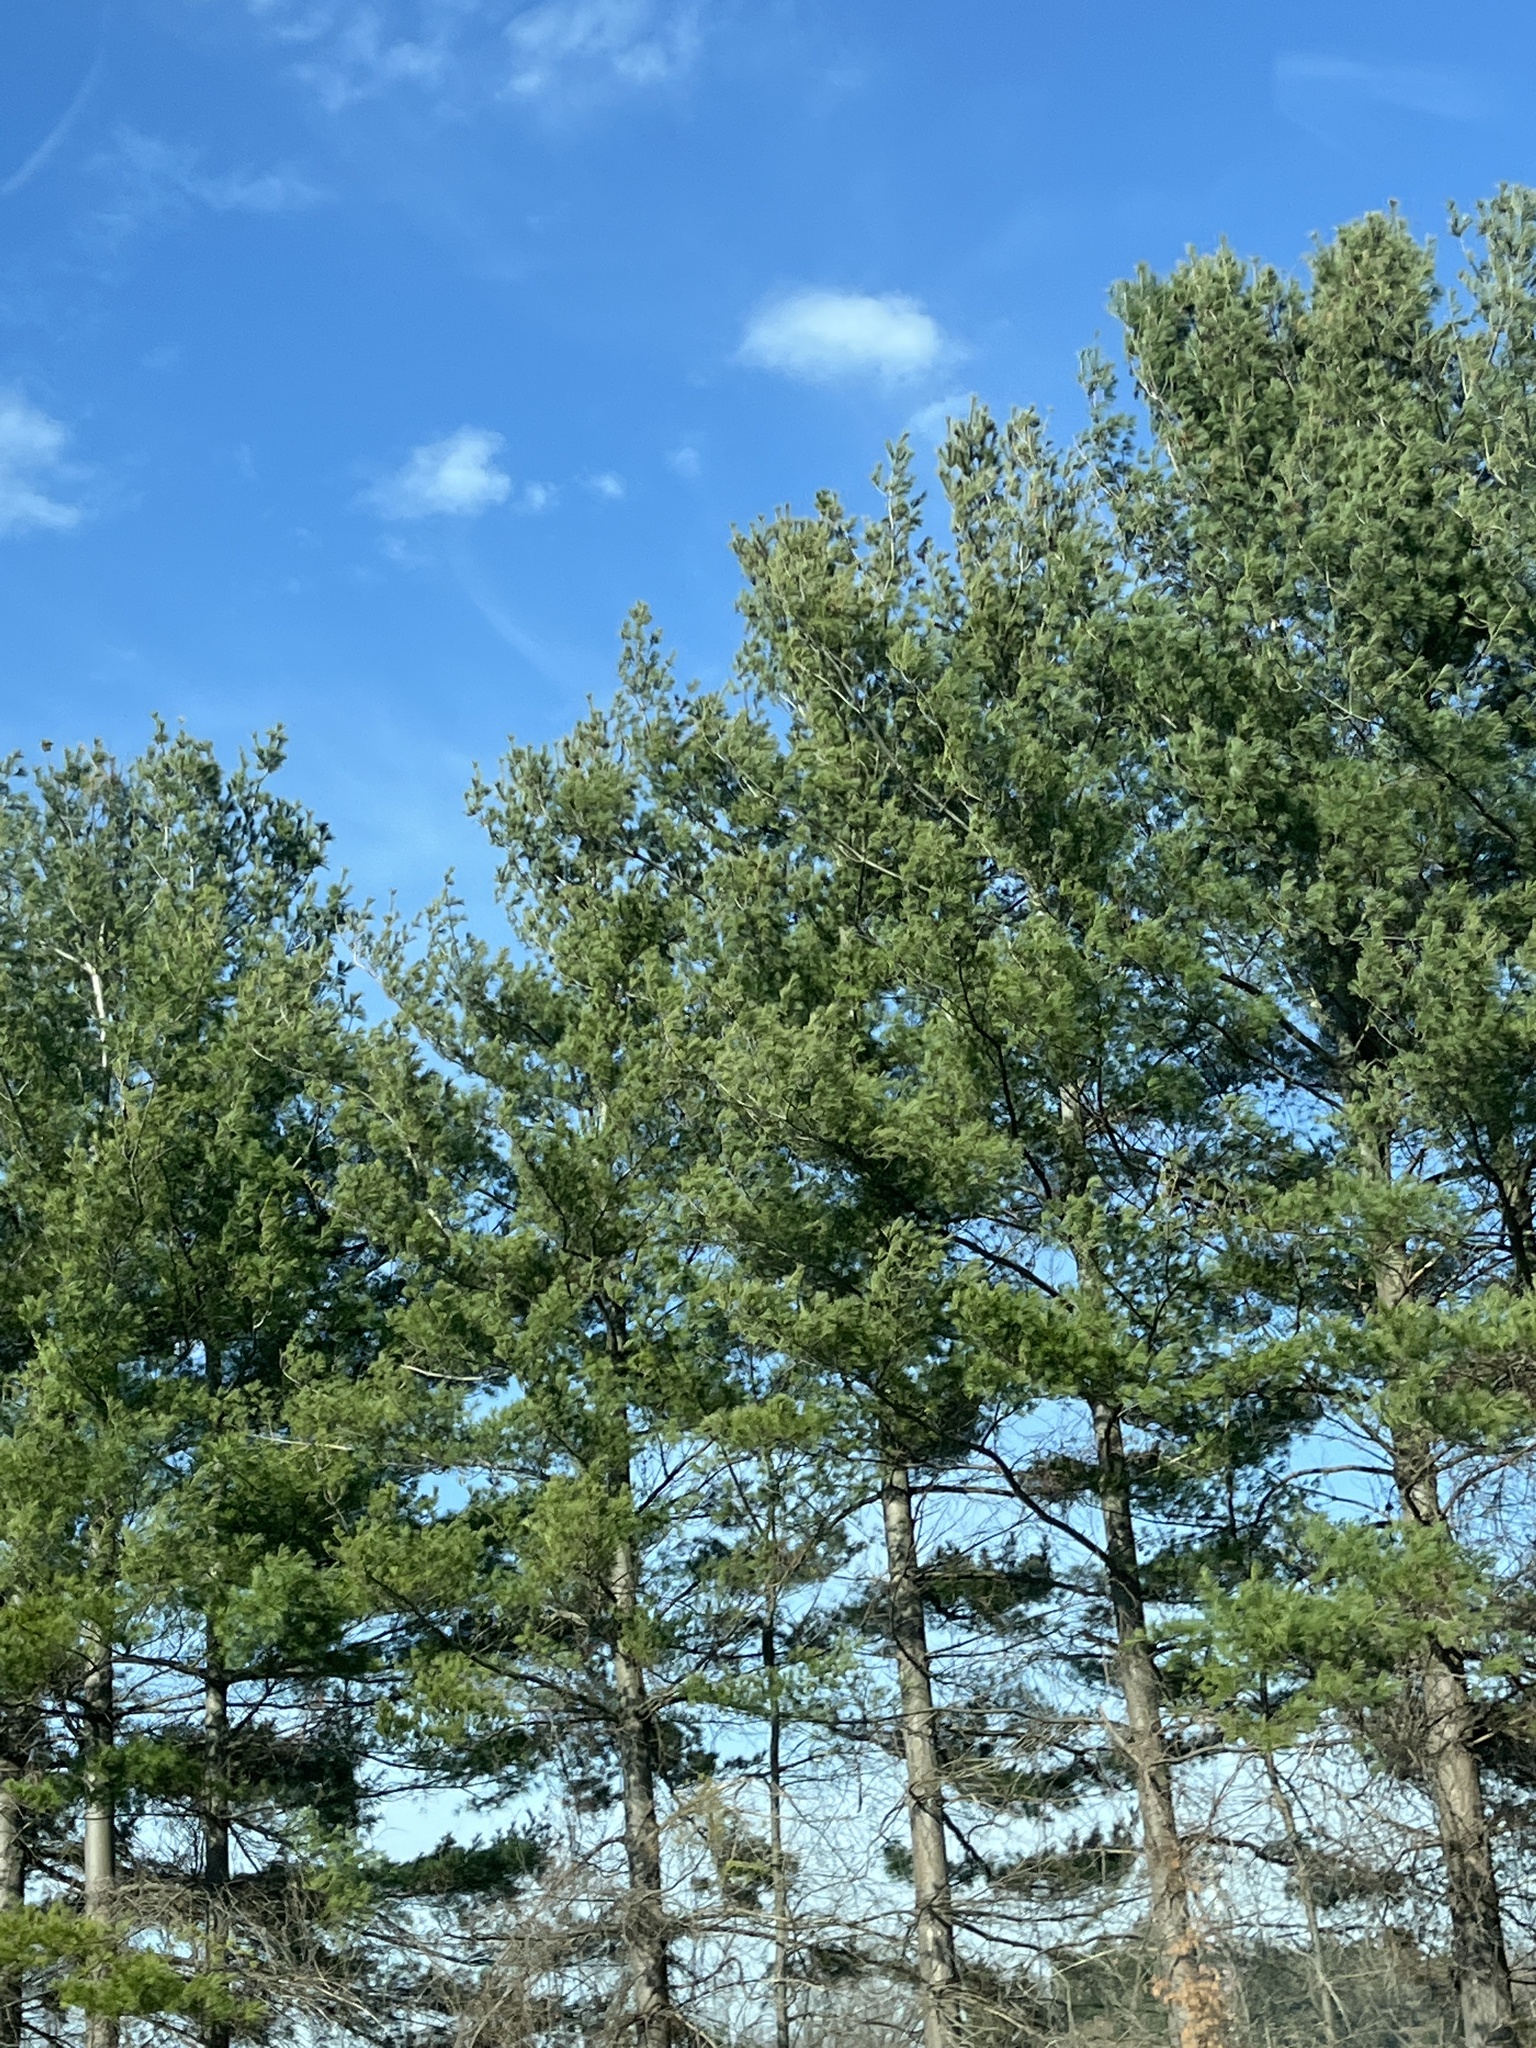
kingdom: Plantae
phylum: Tracheophyta
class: Pinopsida
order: Pinales
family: Pinaceae
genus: Pinus
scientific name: Pinus strobus
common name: Weymouth pine
